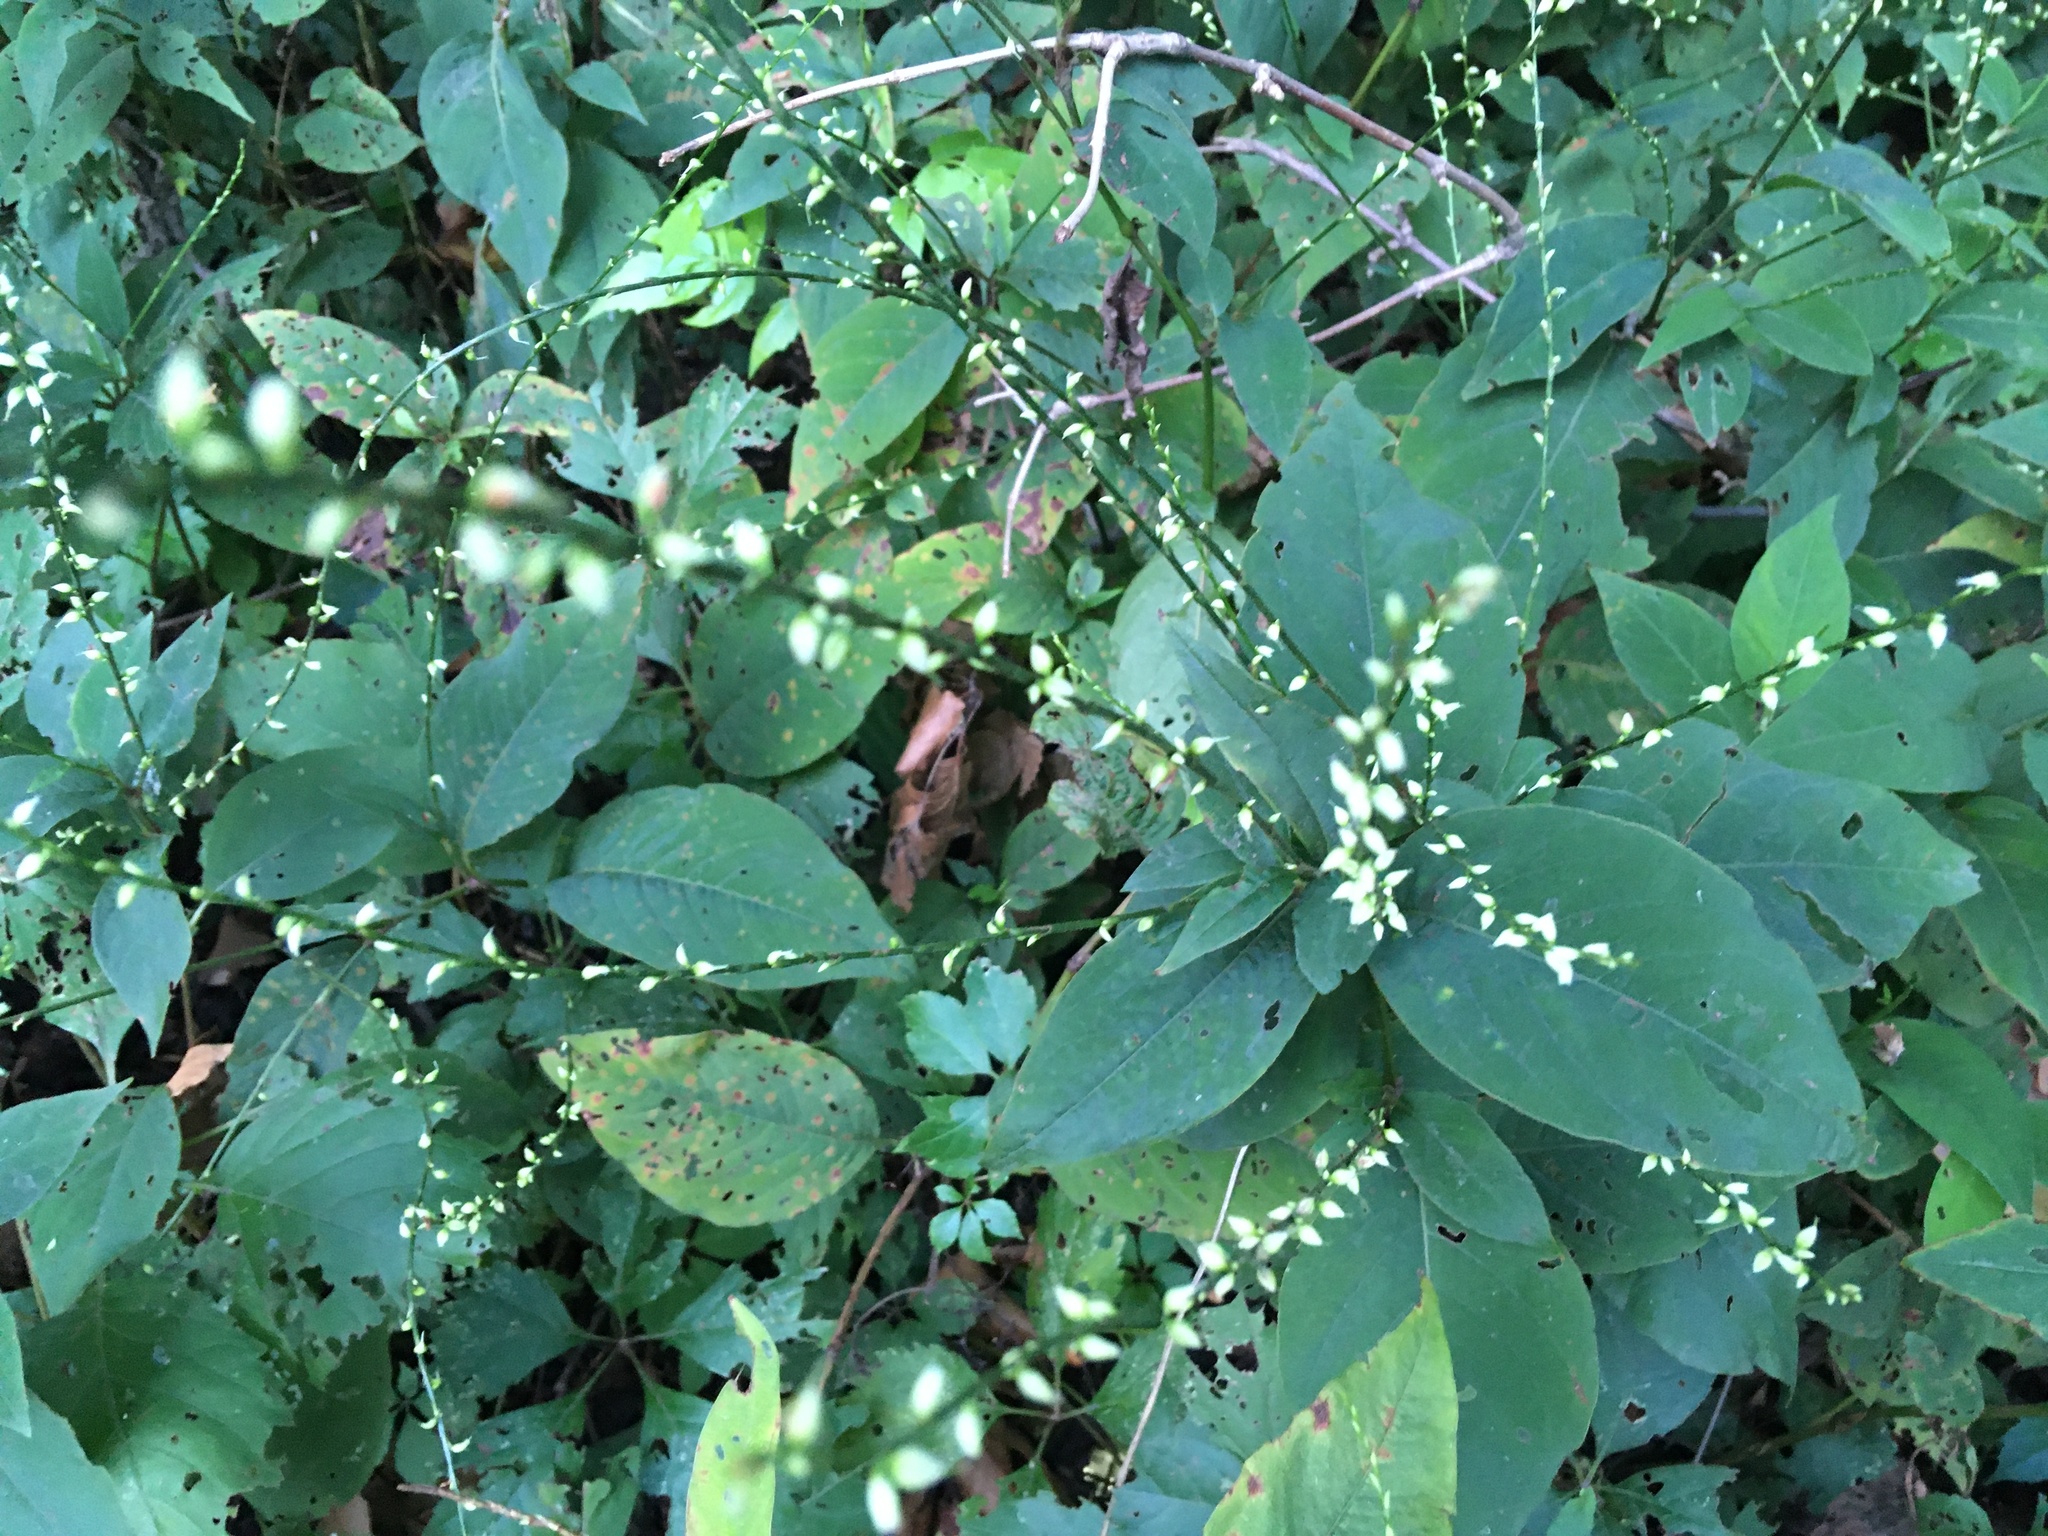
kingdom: Plantae
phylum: Tracheophyta
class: Magnoliopsida
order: Caryophyllales
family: Polygonaceae
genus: Persicaria
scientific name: Persicaria virginiana
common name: Jumpseed
